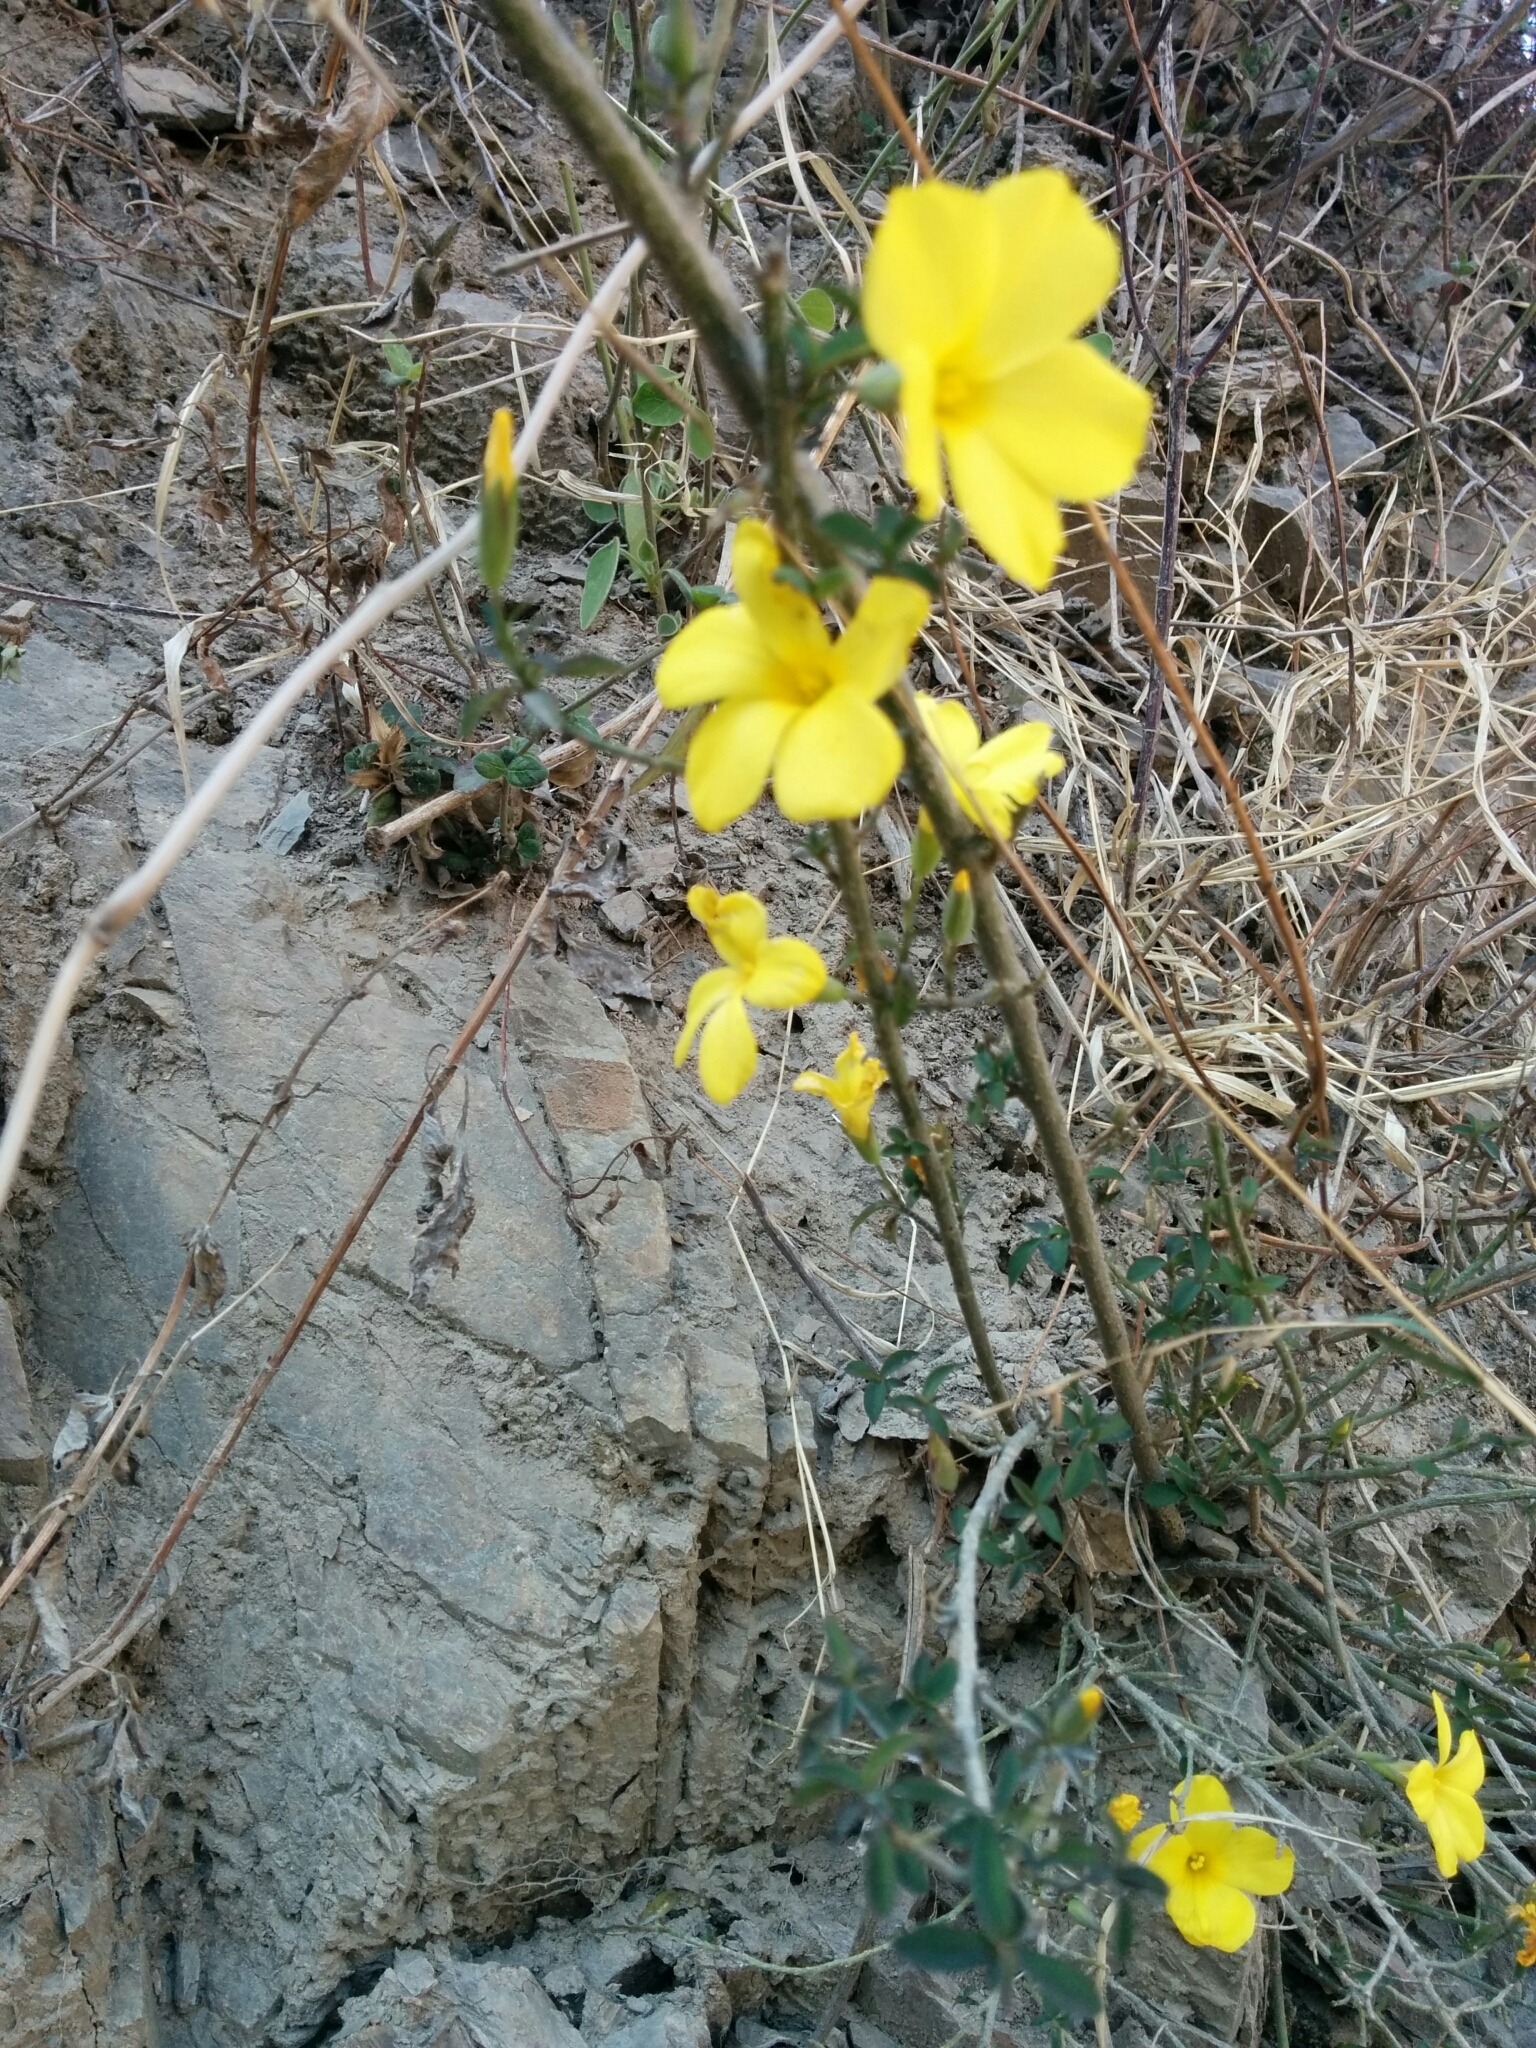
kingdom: Plantae
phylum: Tracheophyta
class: Magnoliopsida
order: Malpighiales
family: Linaceae
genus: Reinwardtia
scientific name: Reinwardtia indica
